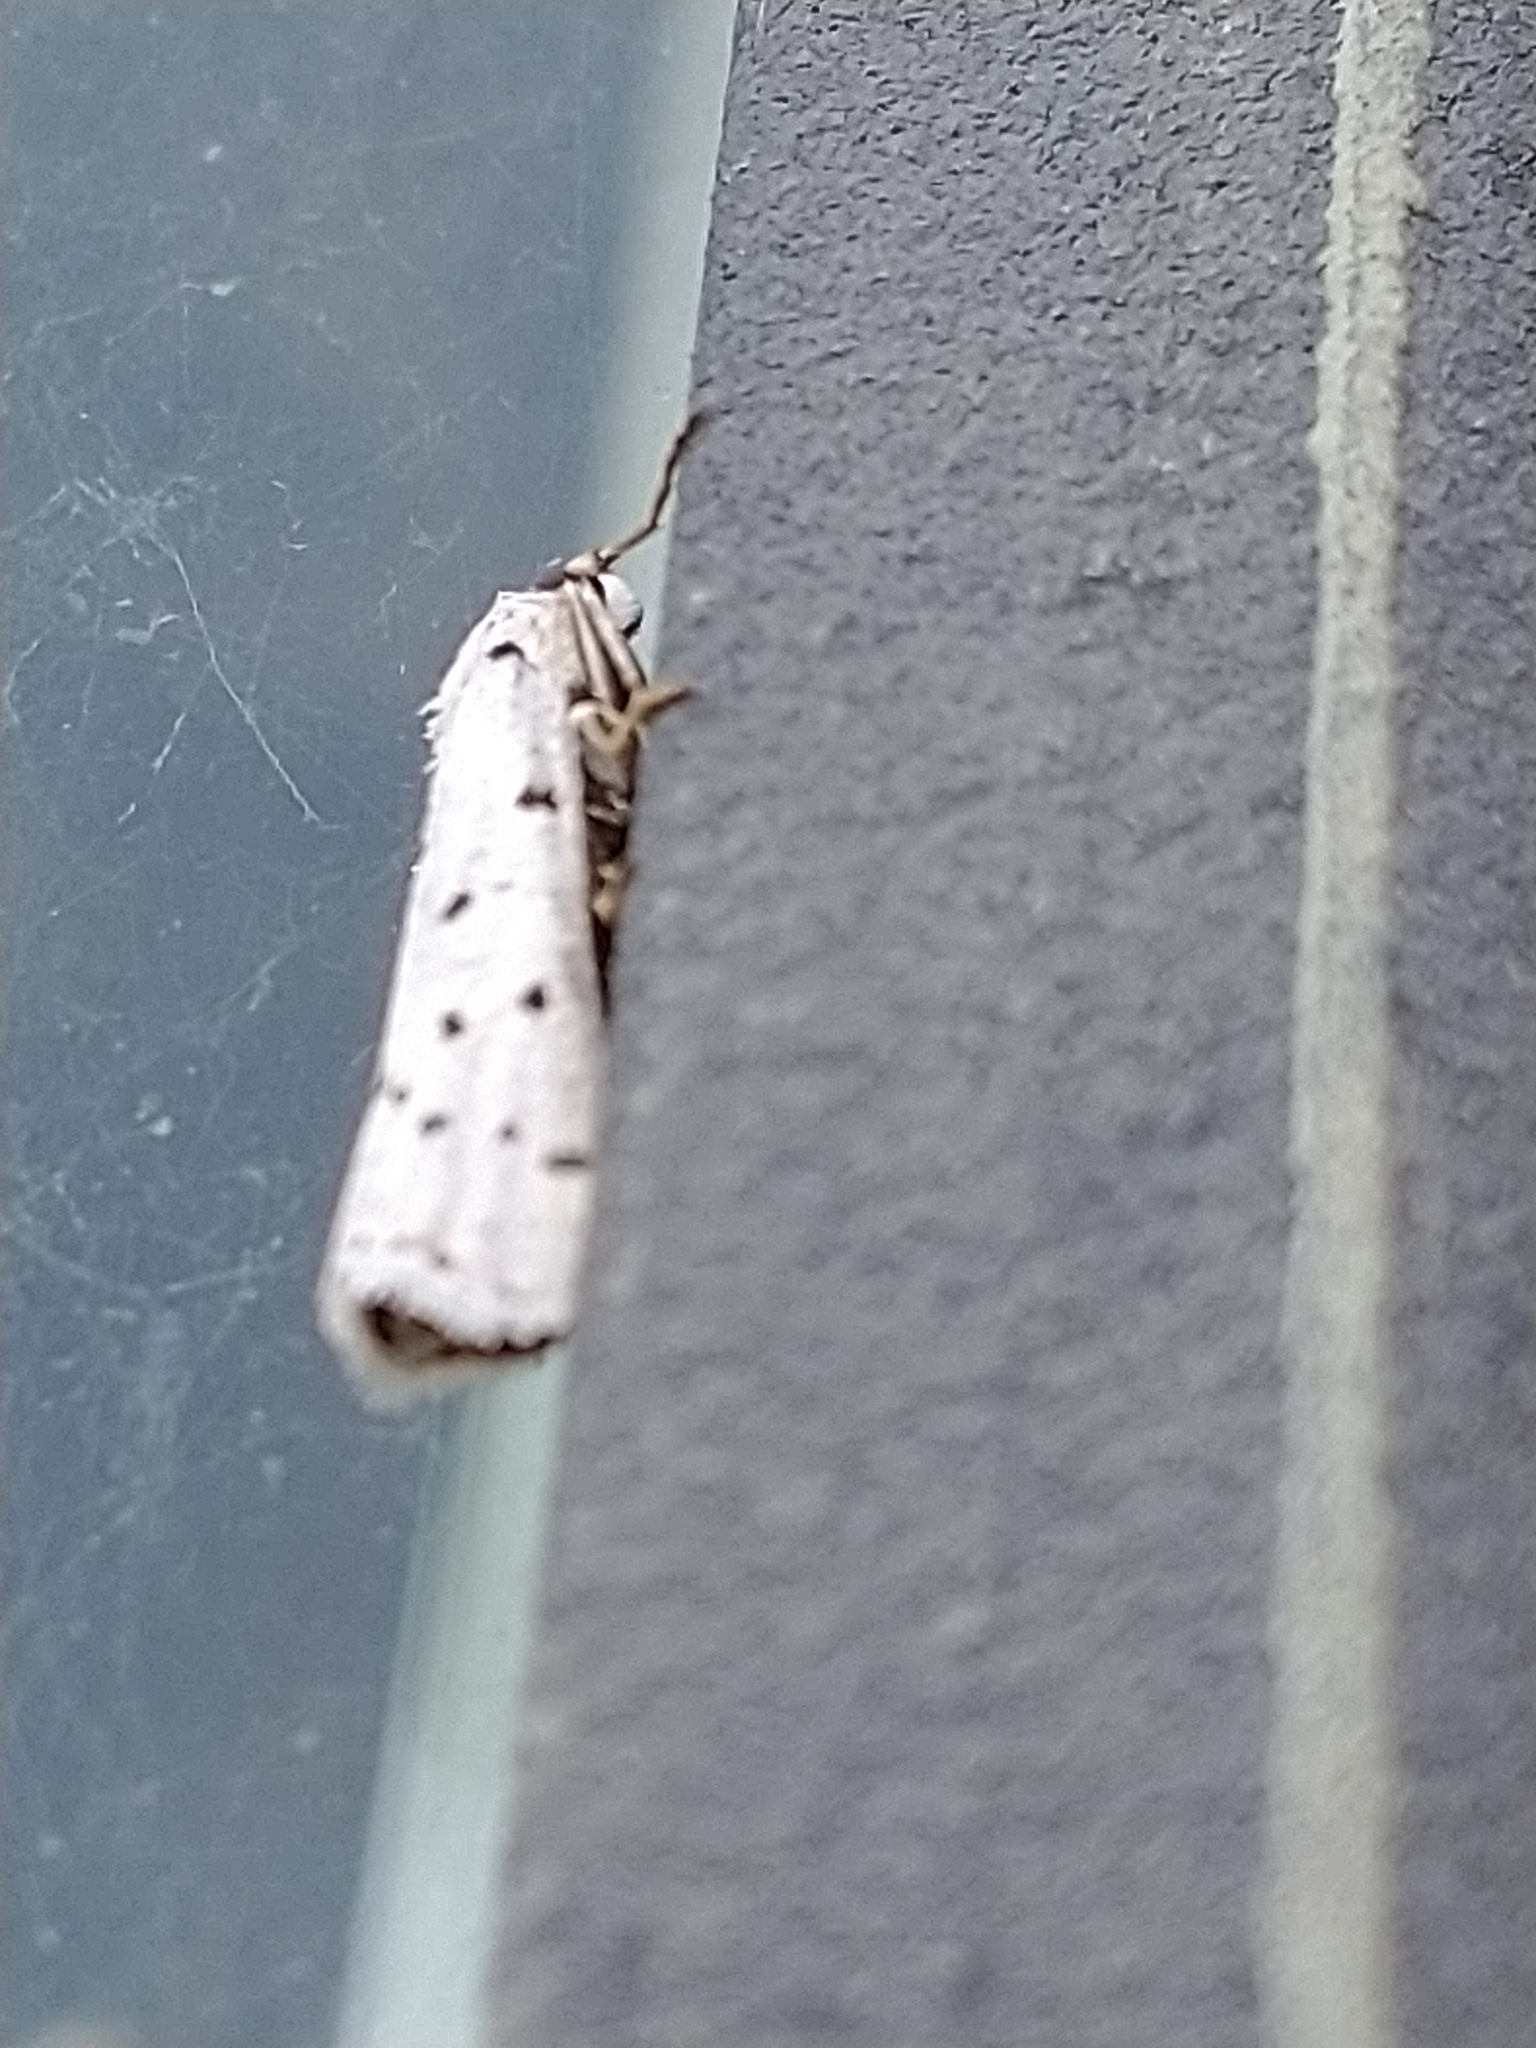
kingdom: Animalia
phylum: Arthropoda
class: Insecta
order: Lepidoptera
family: Pyralidae
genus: Myelois
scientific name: Myelois circumvoluta
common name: Thistle ermine
